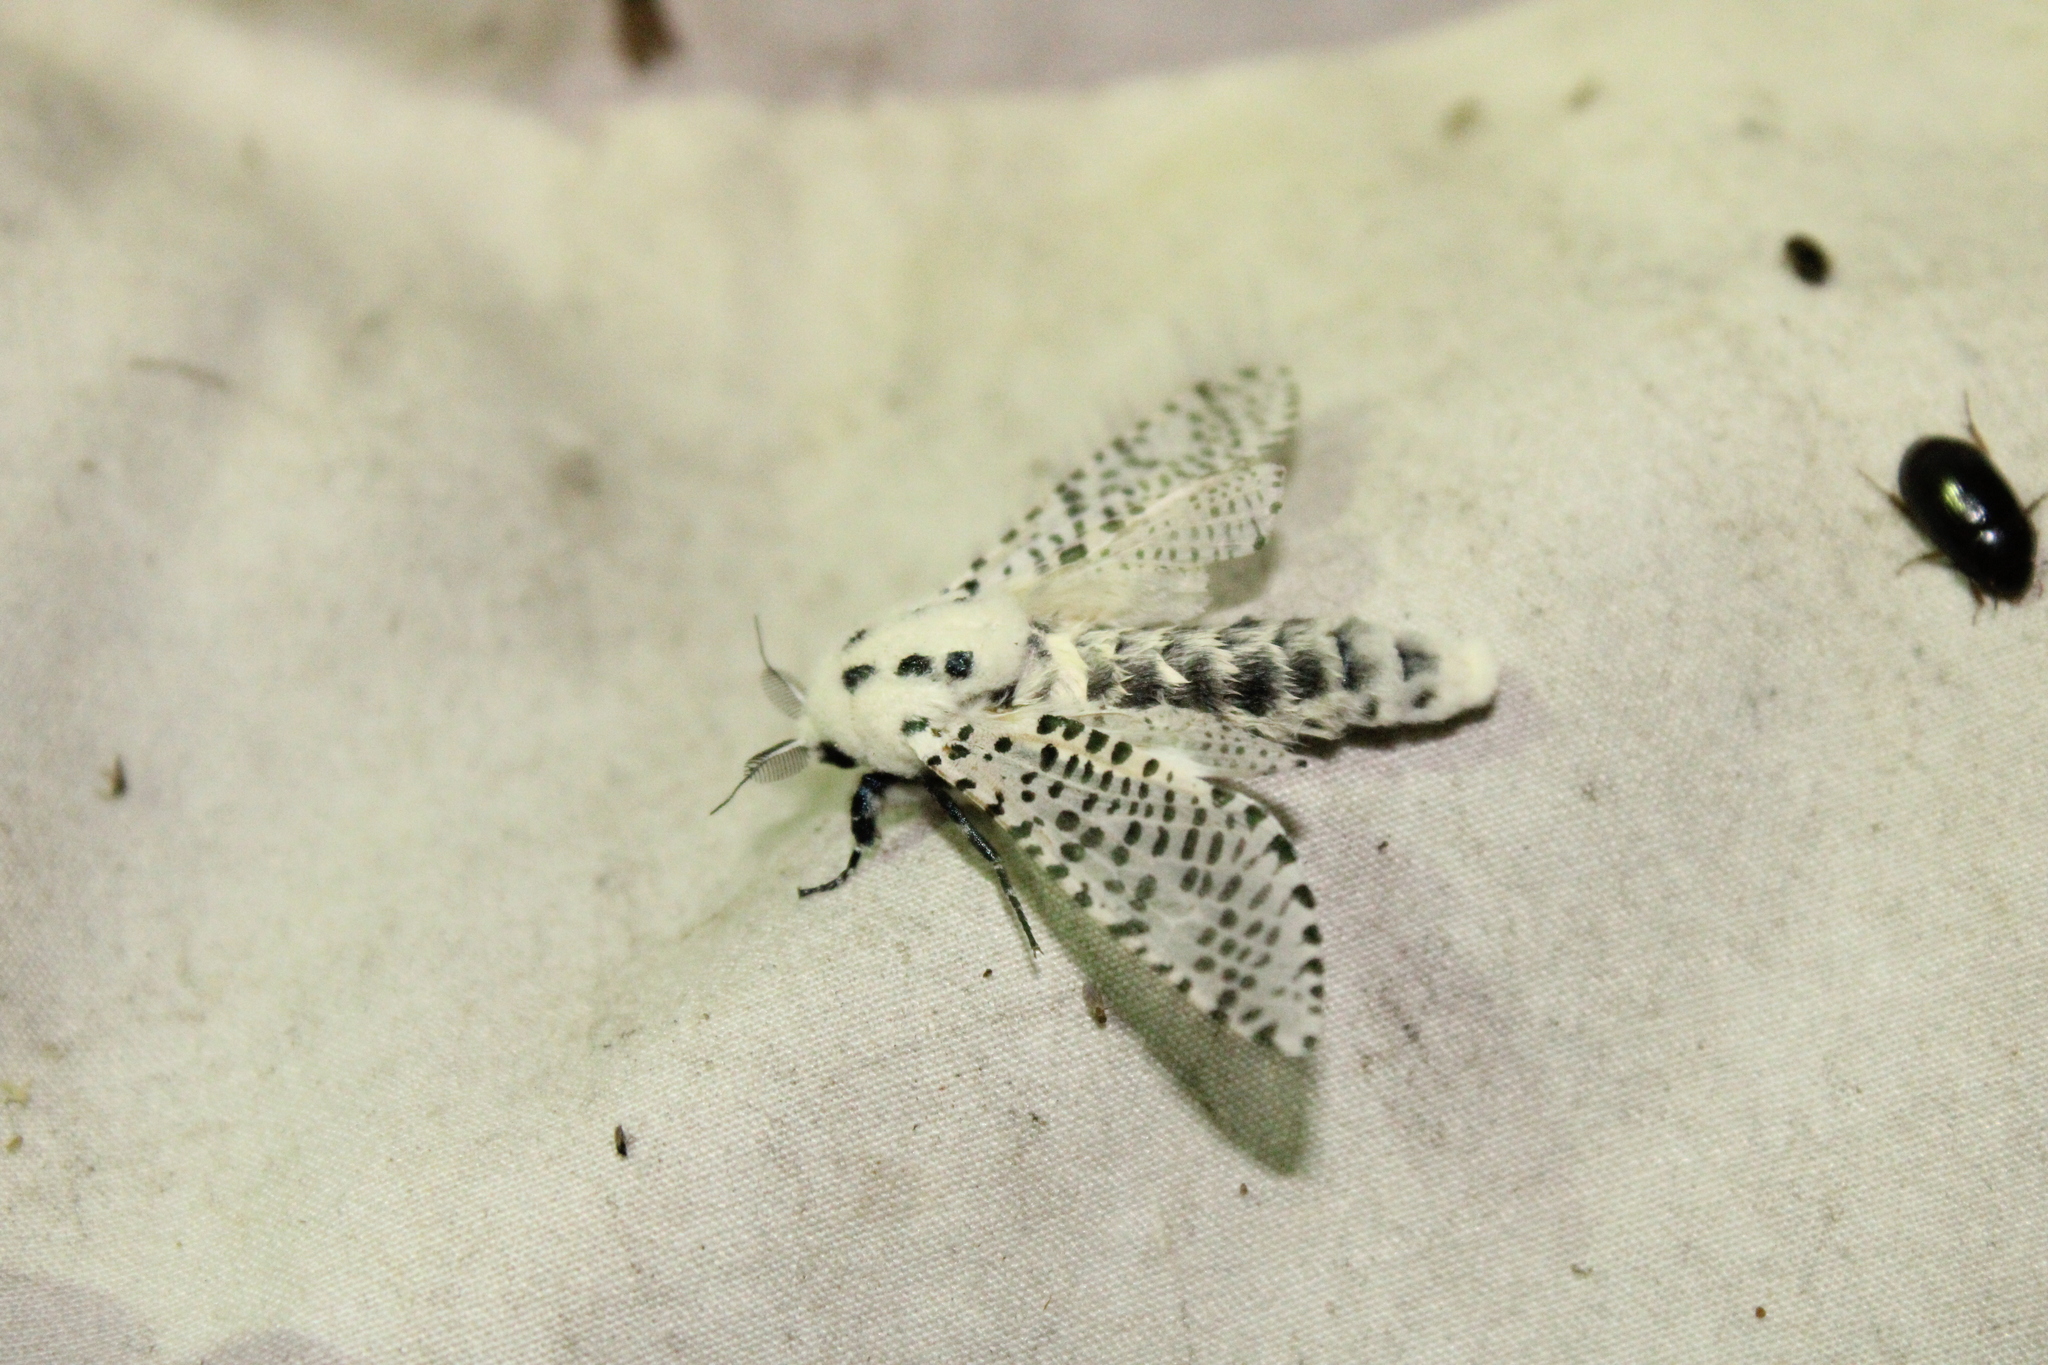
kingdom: Animalia
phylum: Arthropoda
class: Insecta
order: Lepidoptera
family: Cossidae
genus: Zeuzera
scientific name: Zeuzera pyrina
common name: Leopard moth
